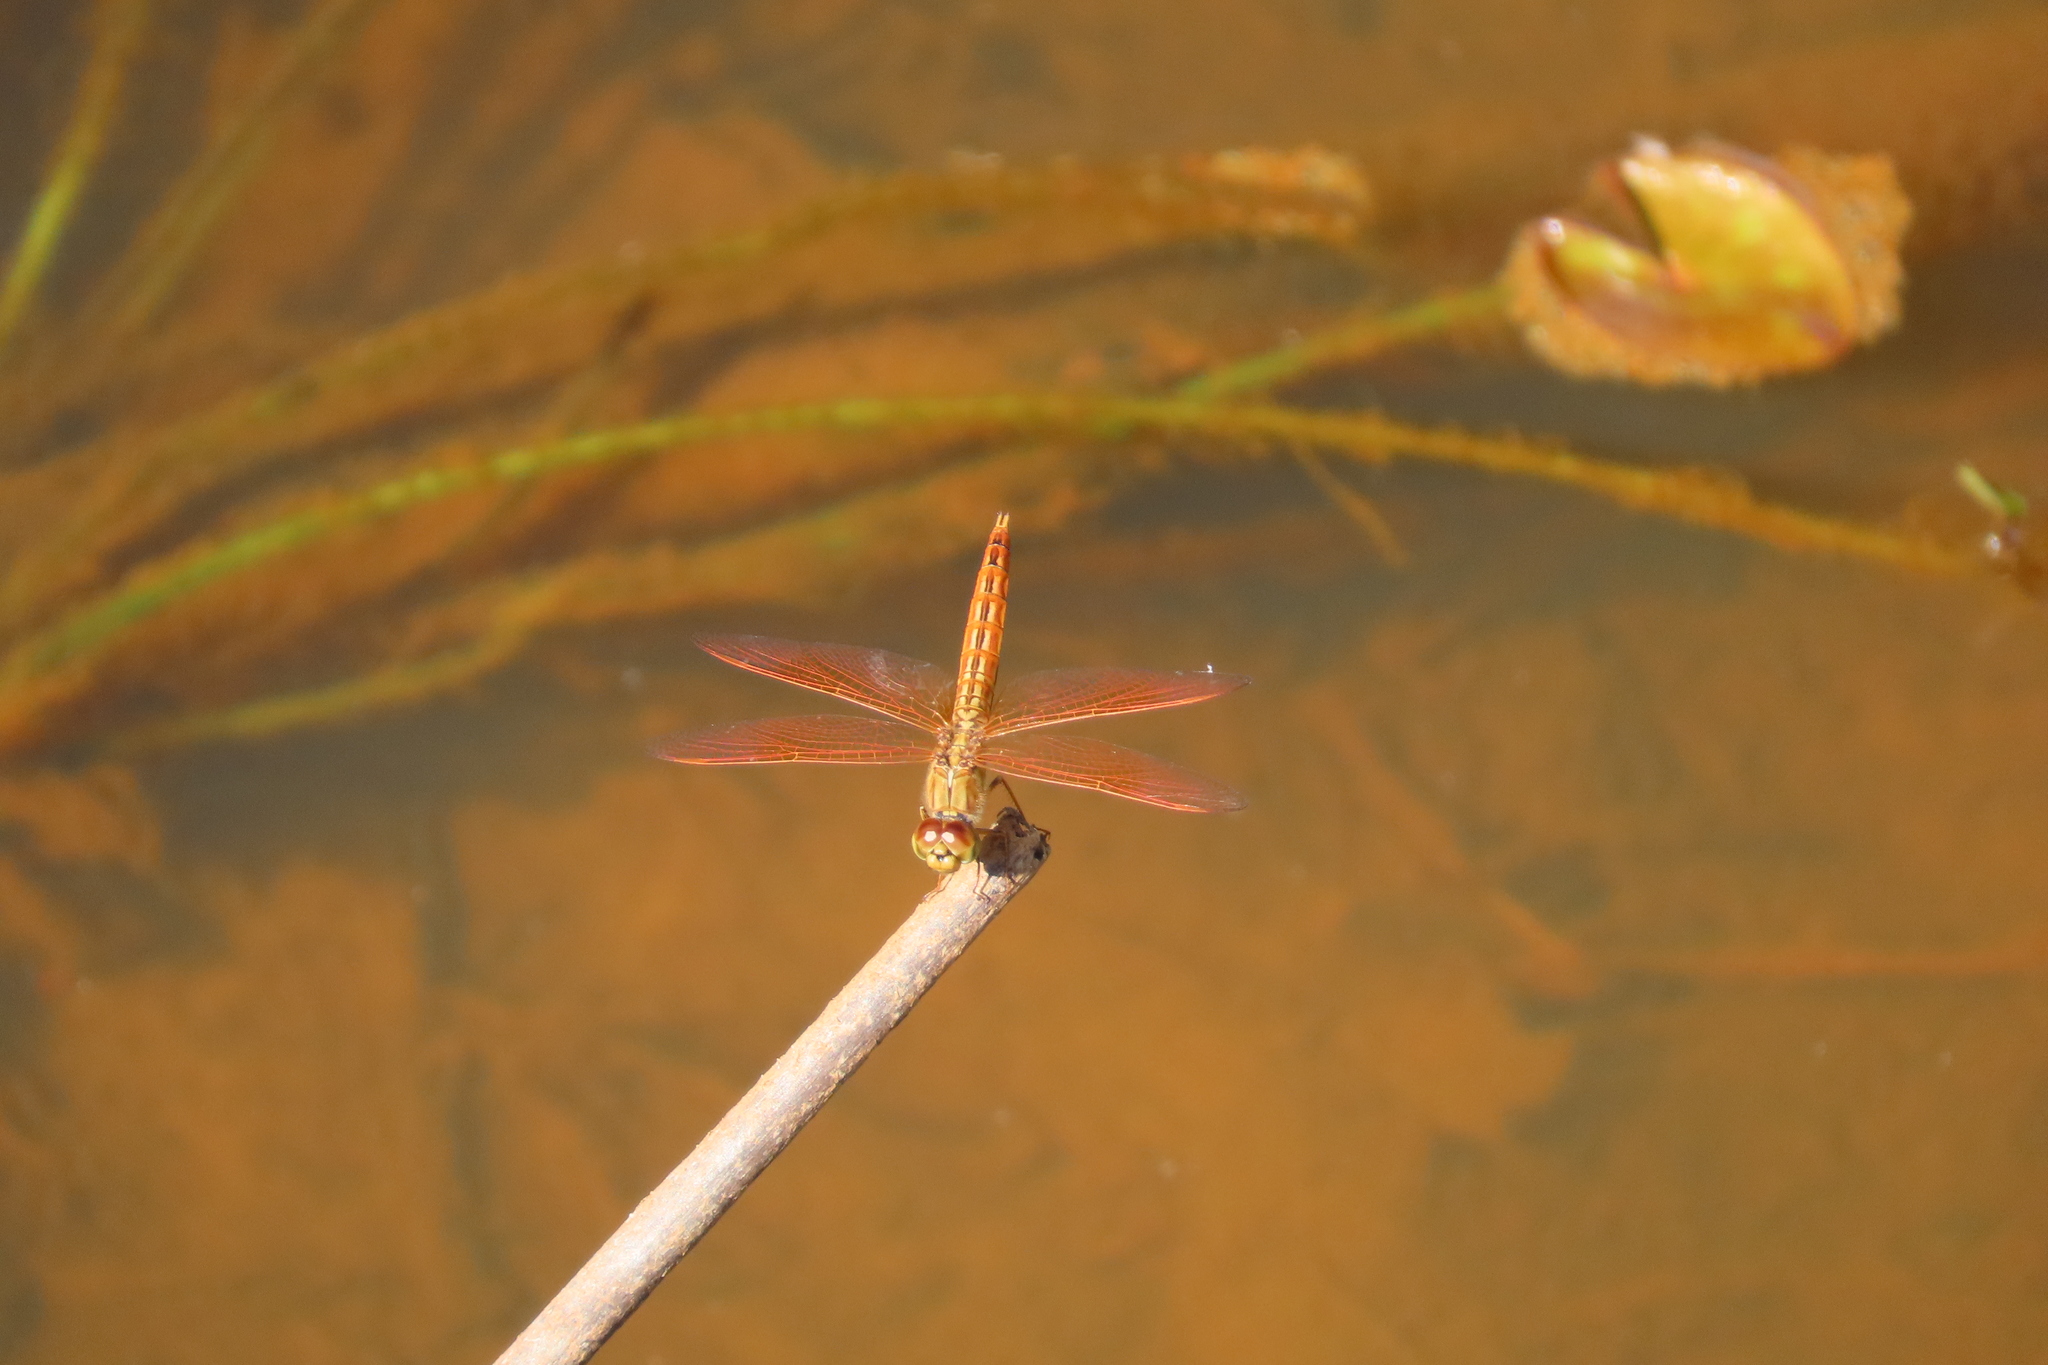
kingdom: Animalia
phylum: Arthropoda
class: Insecta
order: Odonata
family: Libellulidae
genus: Brachythemis
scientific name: Brachythemis contaminata
